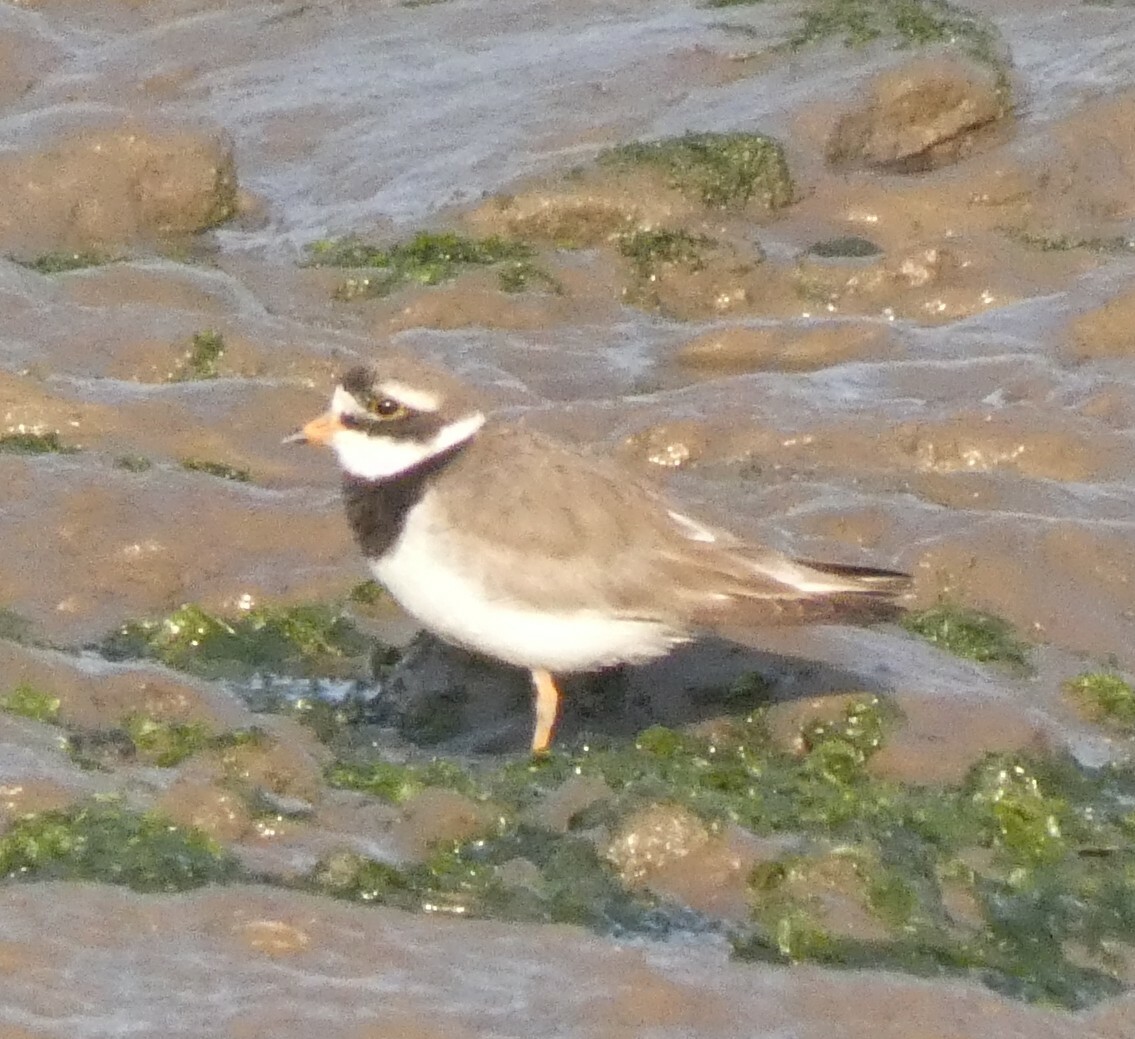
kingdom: Animalia
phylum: Chordata
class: Aves
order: Charadriiformes
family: Charadriidae
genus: Charadrius
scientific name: Charadrius hiaticula
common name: Common ringed plover
